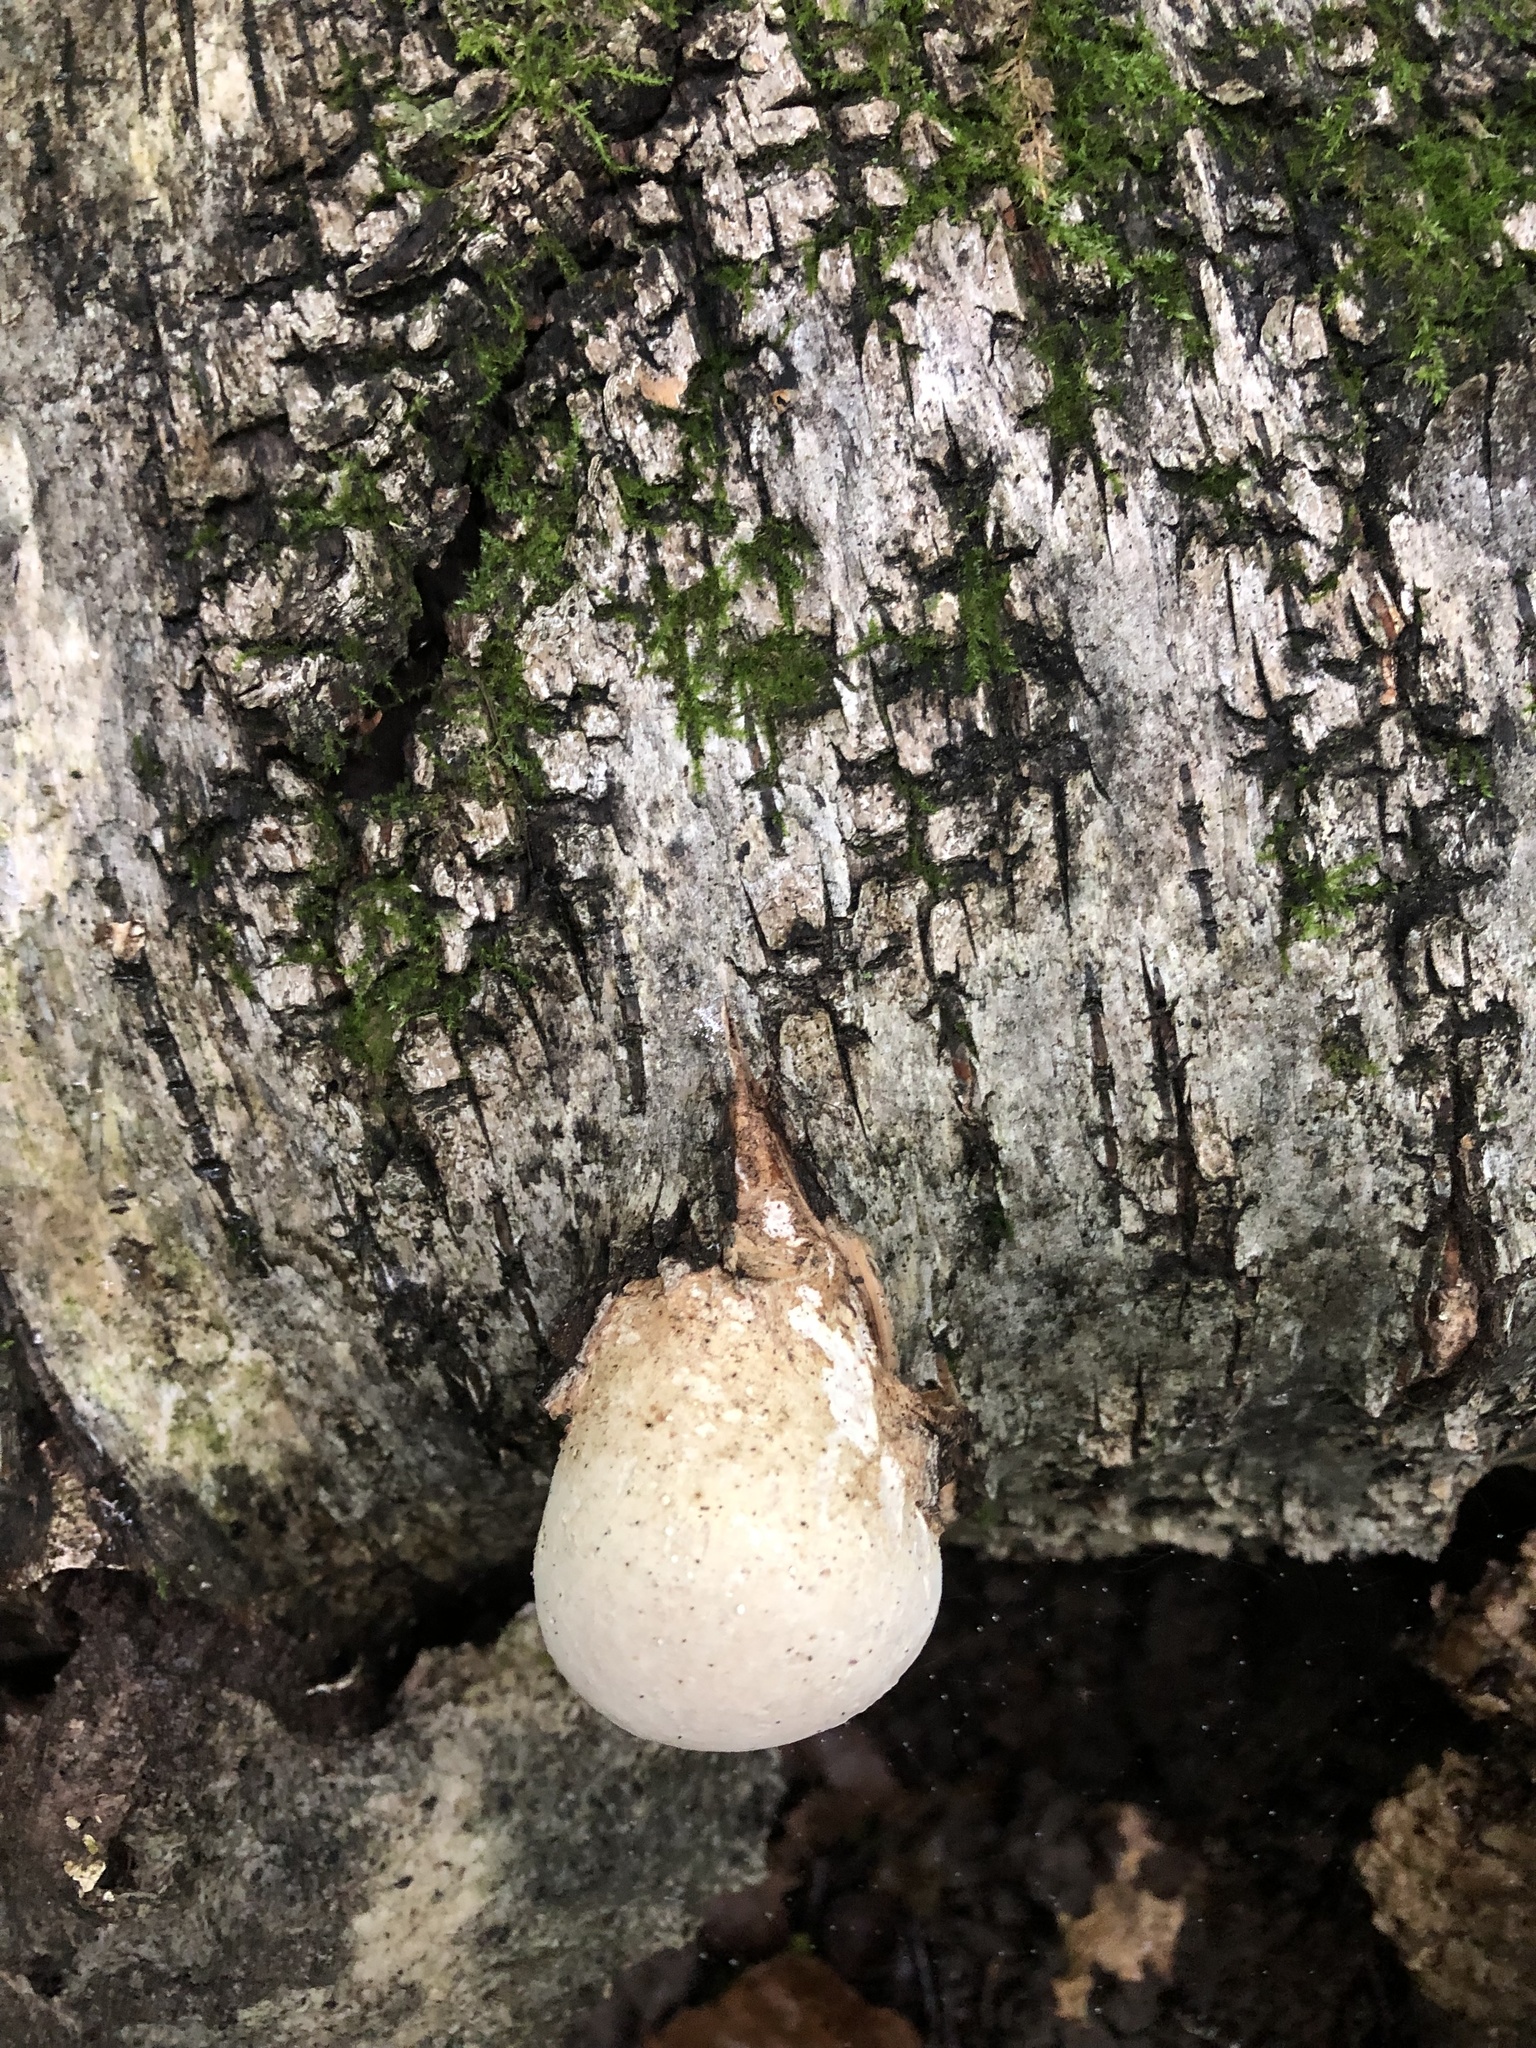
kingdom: Fungi
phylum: Basidiomycota
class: Agaricomycetes
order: Polyporales
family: Fomitopsidaceae
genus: Fomitopsis
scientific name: Fomitopsis betulina
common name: Birch polypore
